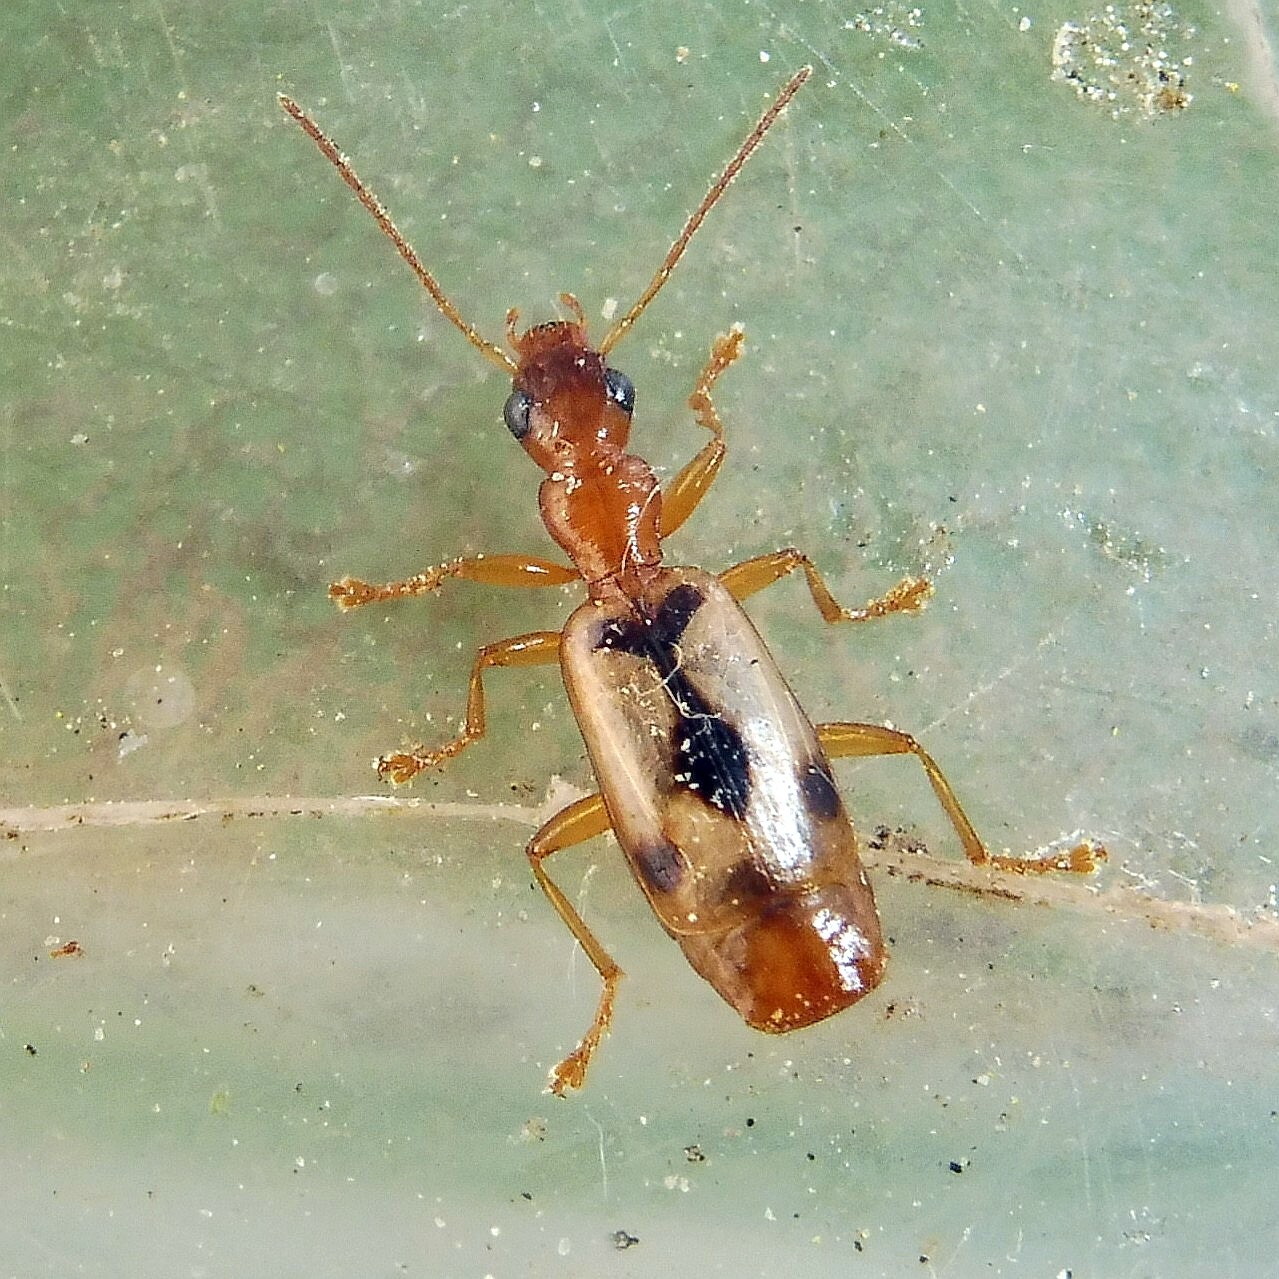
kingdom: Animalia
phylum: Arthropoda
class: Insecta
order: Coleoptera
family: Carabidae
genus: Demetrias
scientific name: Demetrias imperialis
